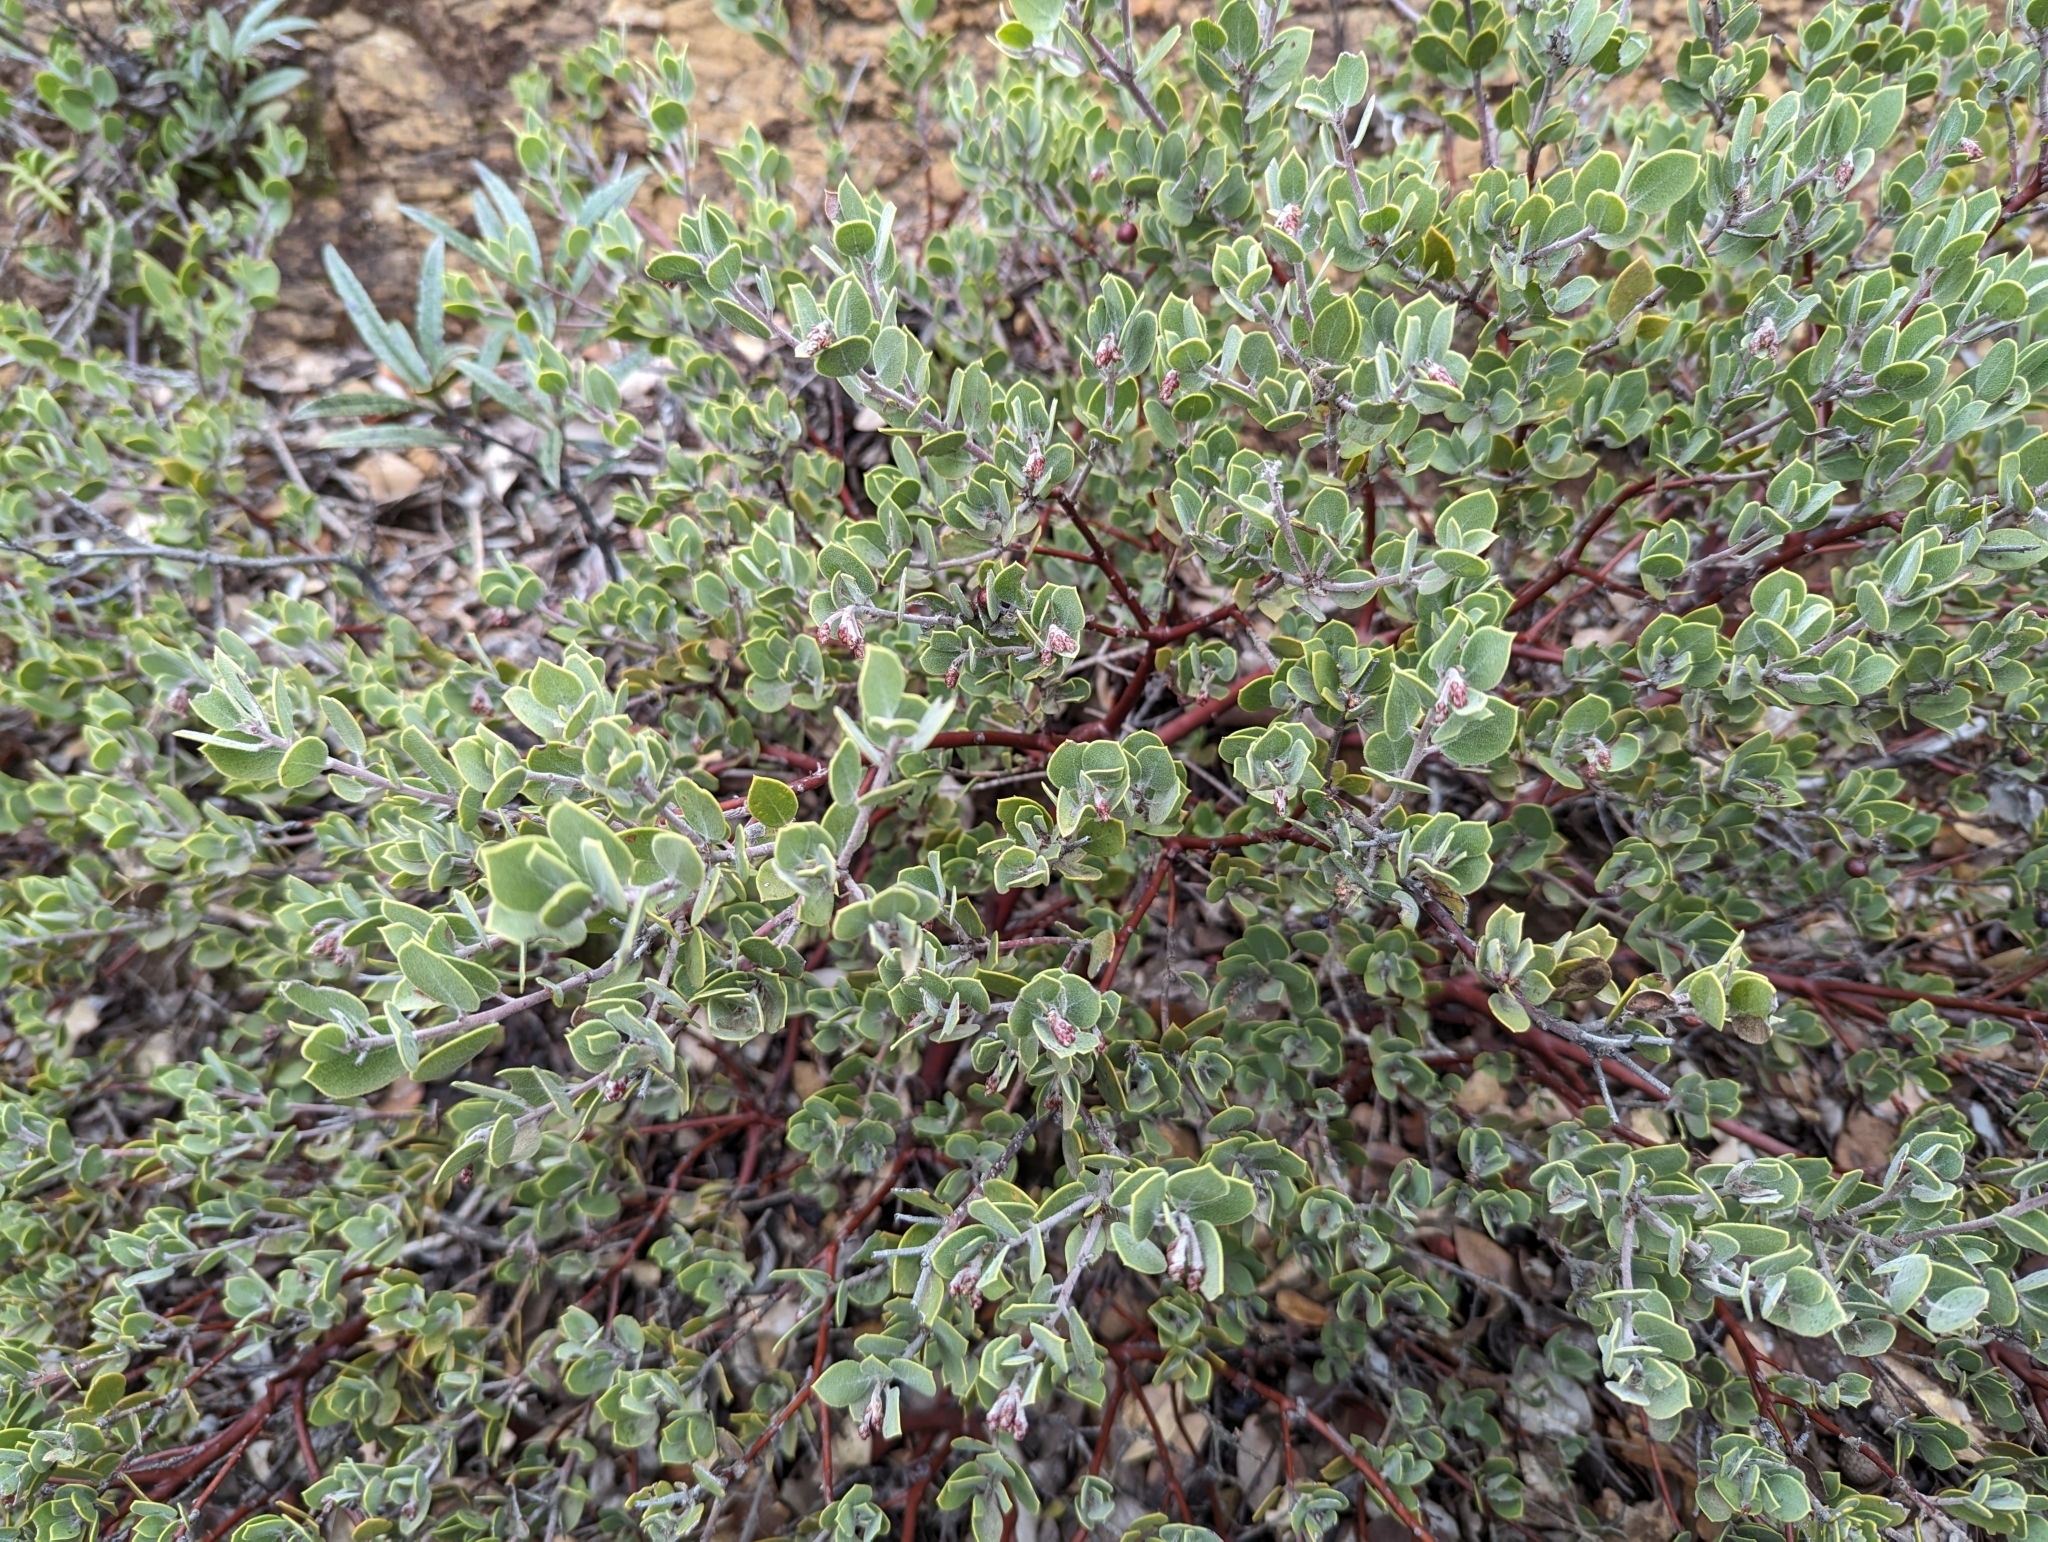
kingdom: Plantae
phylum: Tracheophyta
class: Magnoliopsida
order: Ericales
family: Ericaceae
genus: Arctostaphylos
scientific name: Arctostaphylos montana
